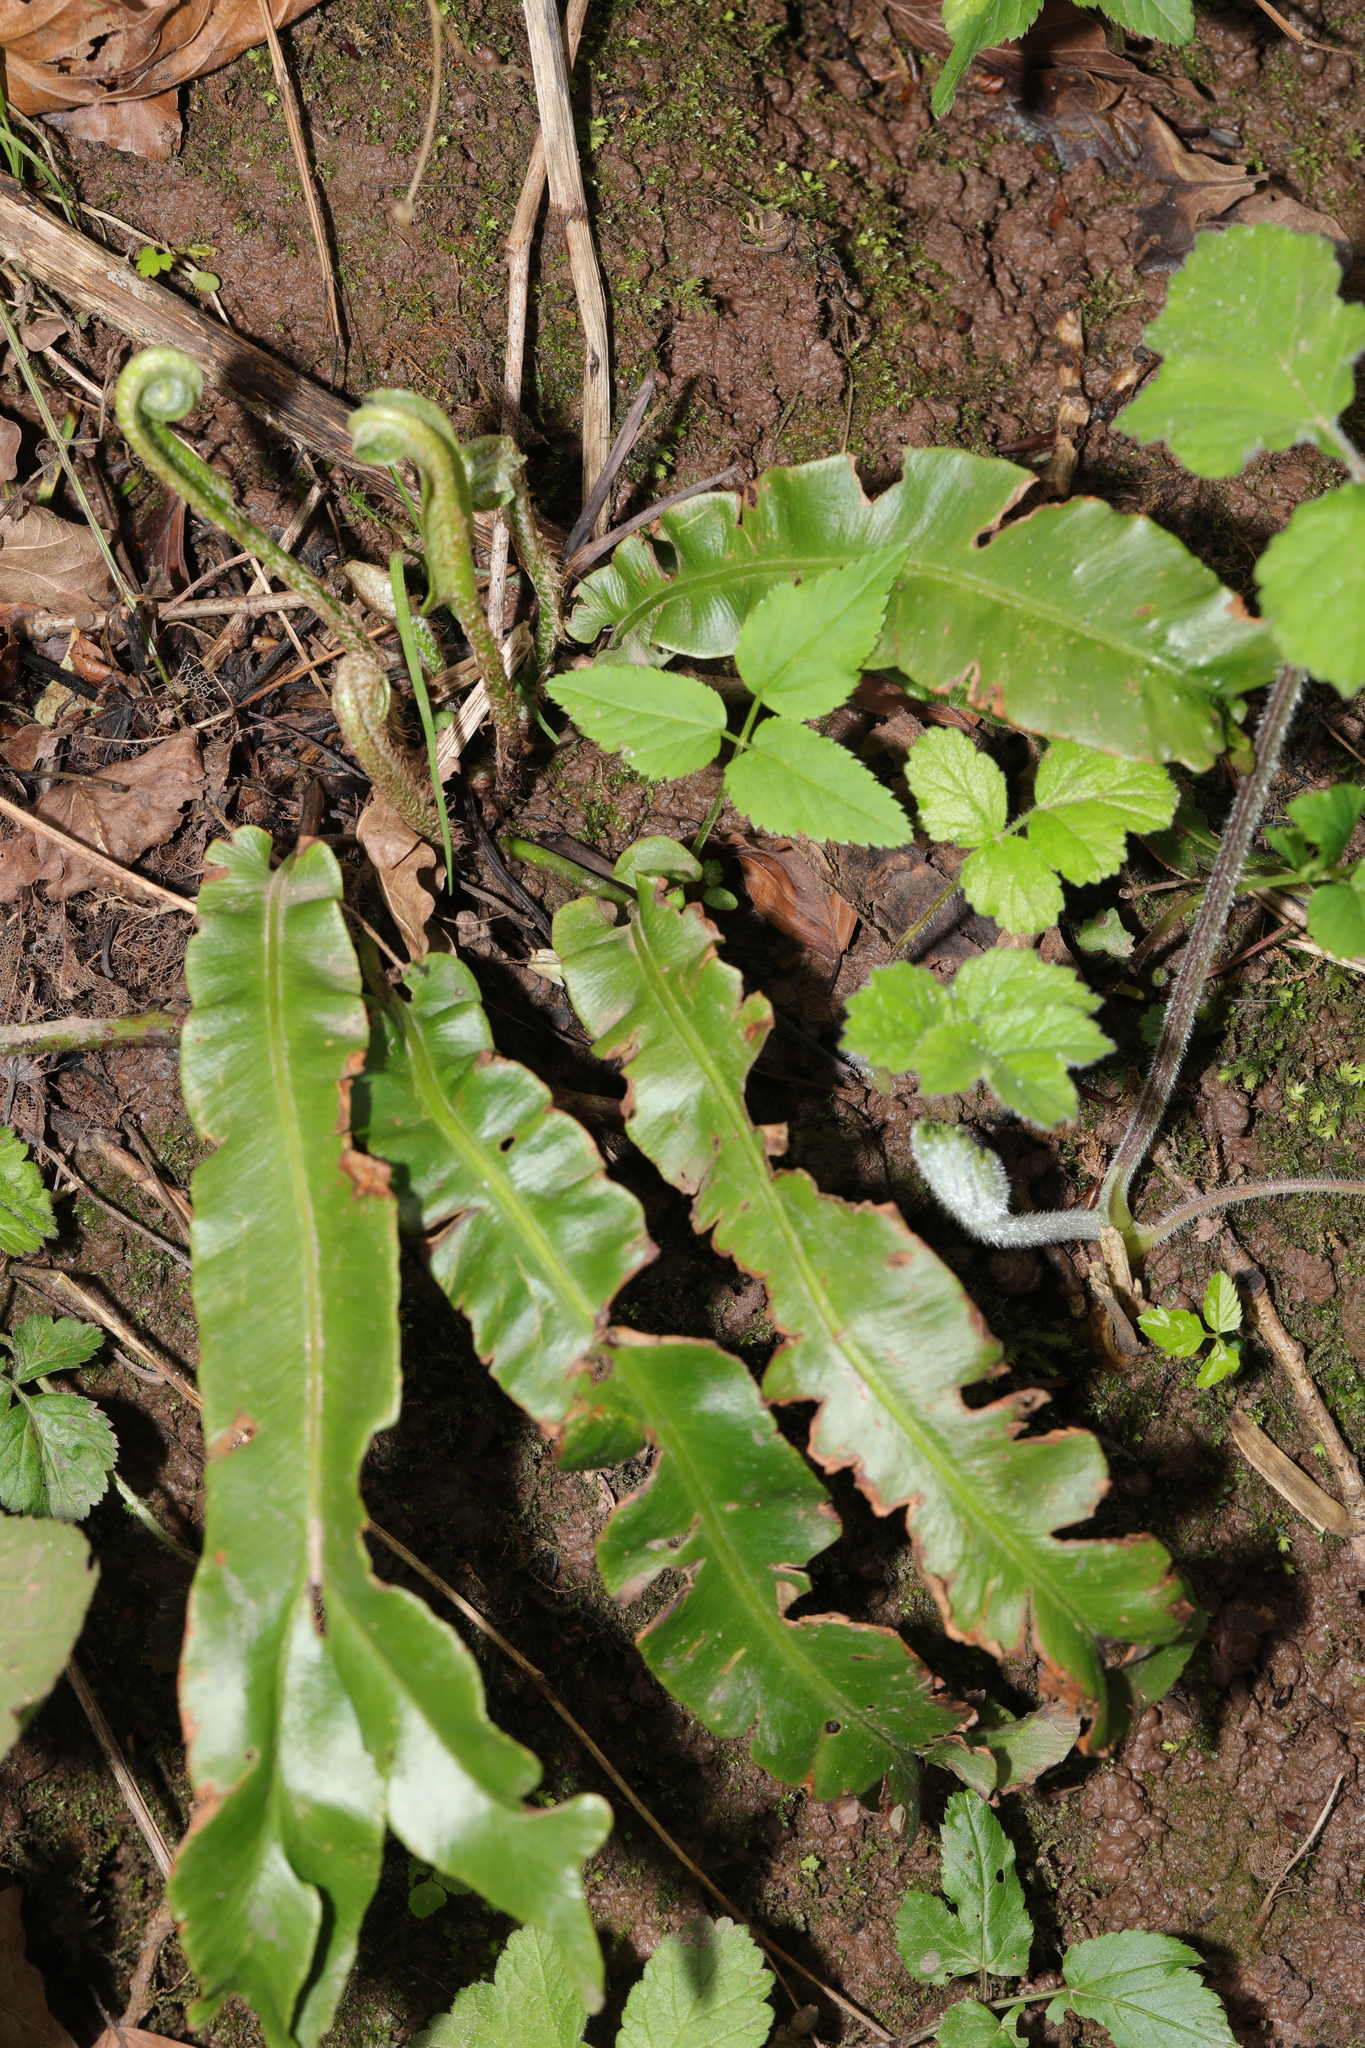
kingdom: Plantae
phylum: Tracheophyta
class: Polypodiopsida
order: Polypodiales
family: Aspleniaceae
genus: Asplenium
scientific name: Asplenium scolopendrium
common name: Hart's-tongue fern
